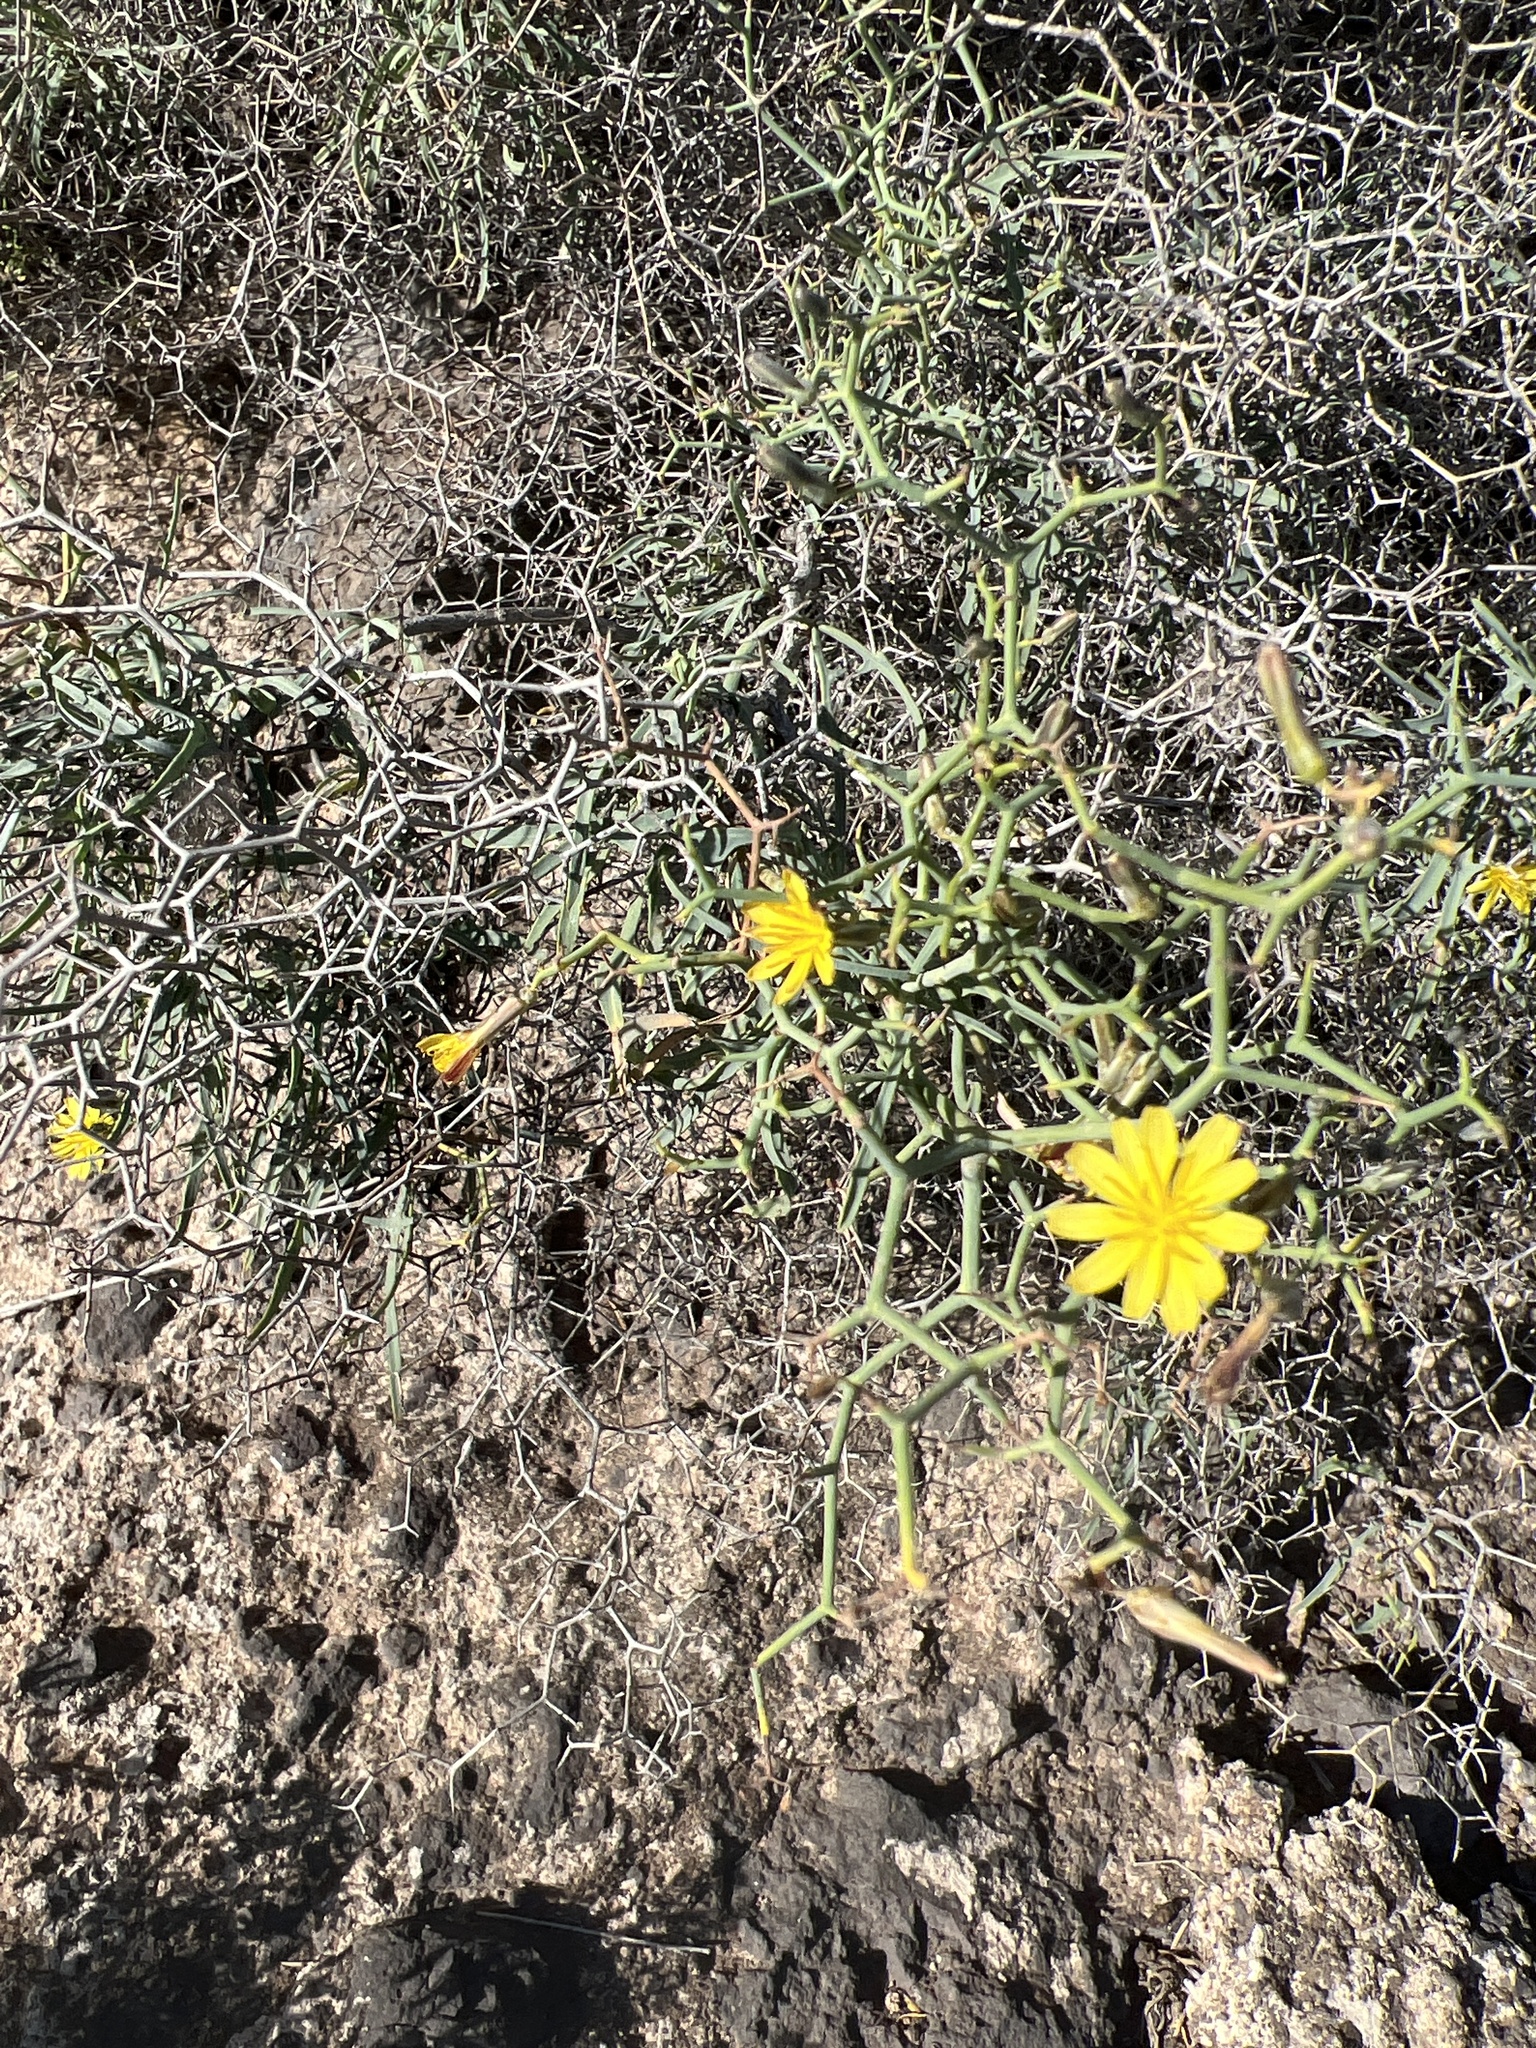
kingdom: Plantae
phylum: Tracheophyta
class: Magnoliopsida
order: Asterales
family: Asteraceae
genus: Launaea
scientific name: Launaea arborescens
